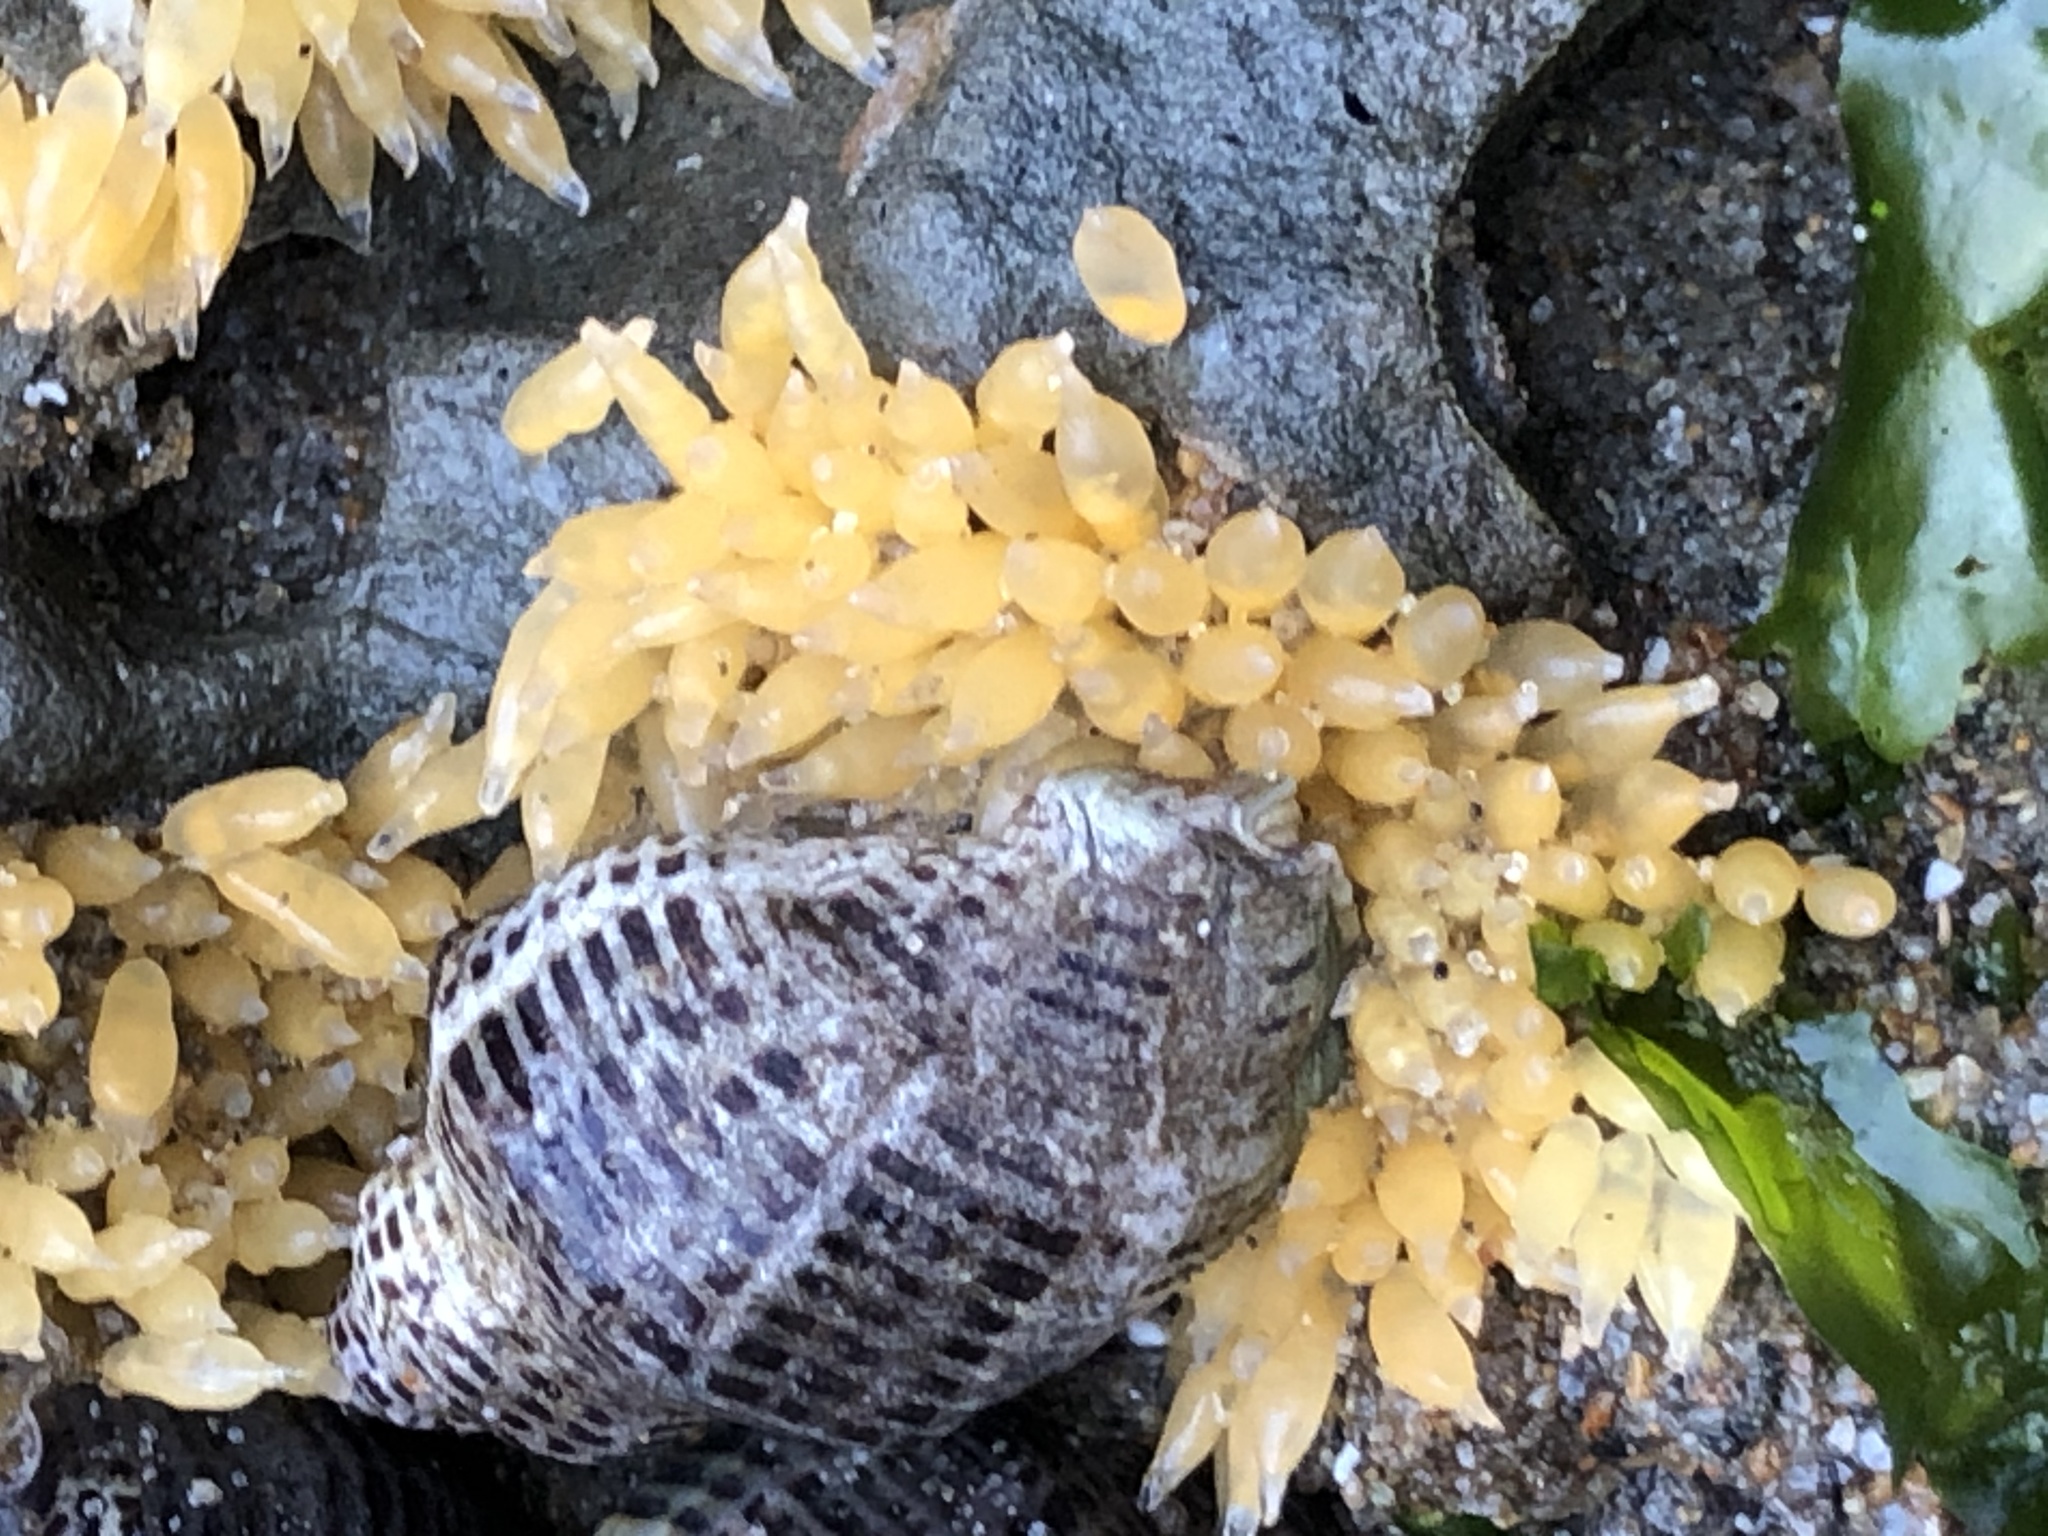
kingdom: Animalia
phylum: Mollusca
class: Gastropoda
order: Neogastropoda
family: Muricidae
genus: Acanthinucella
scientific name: Acanthinucella spirata
